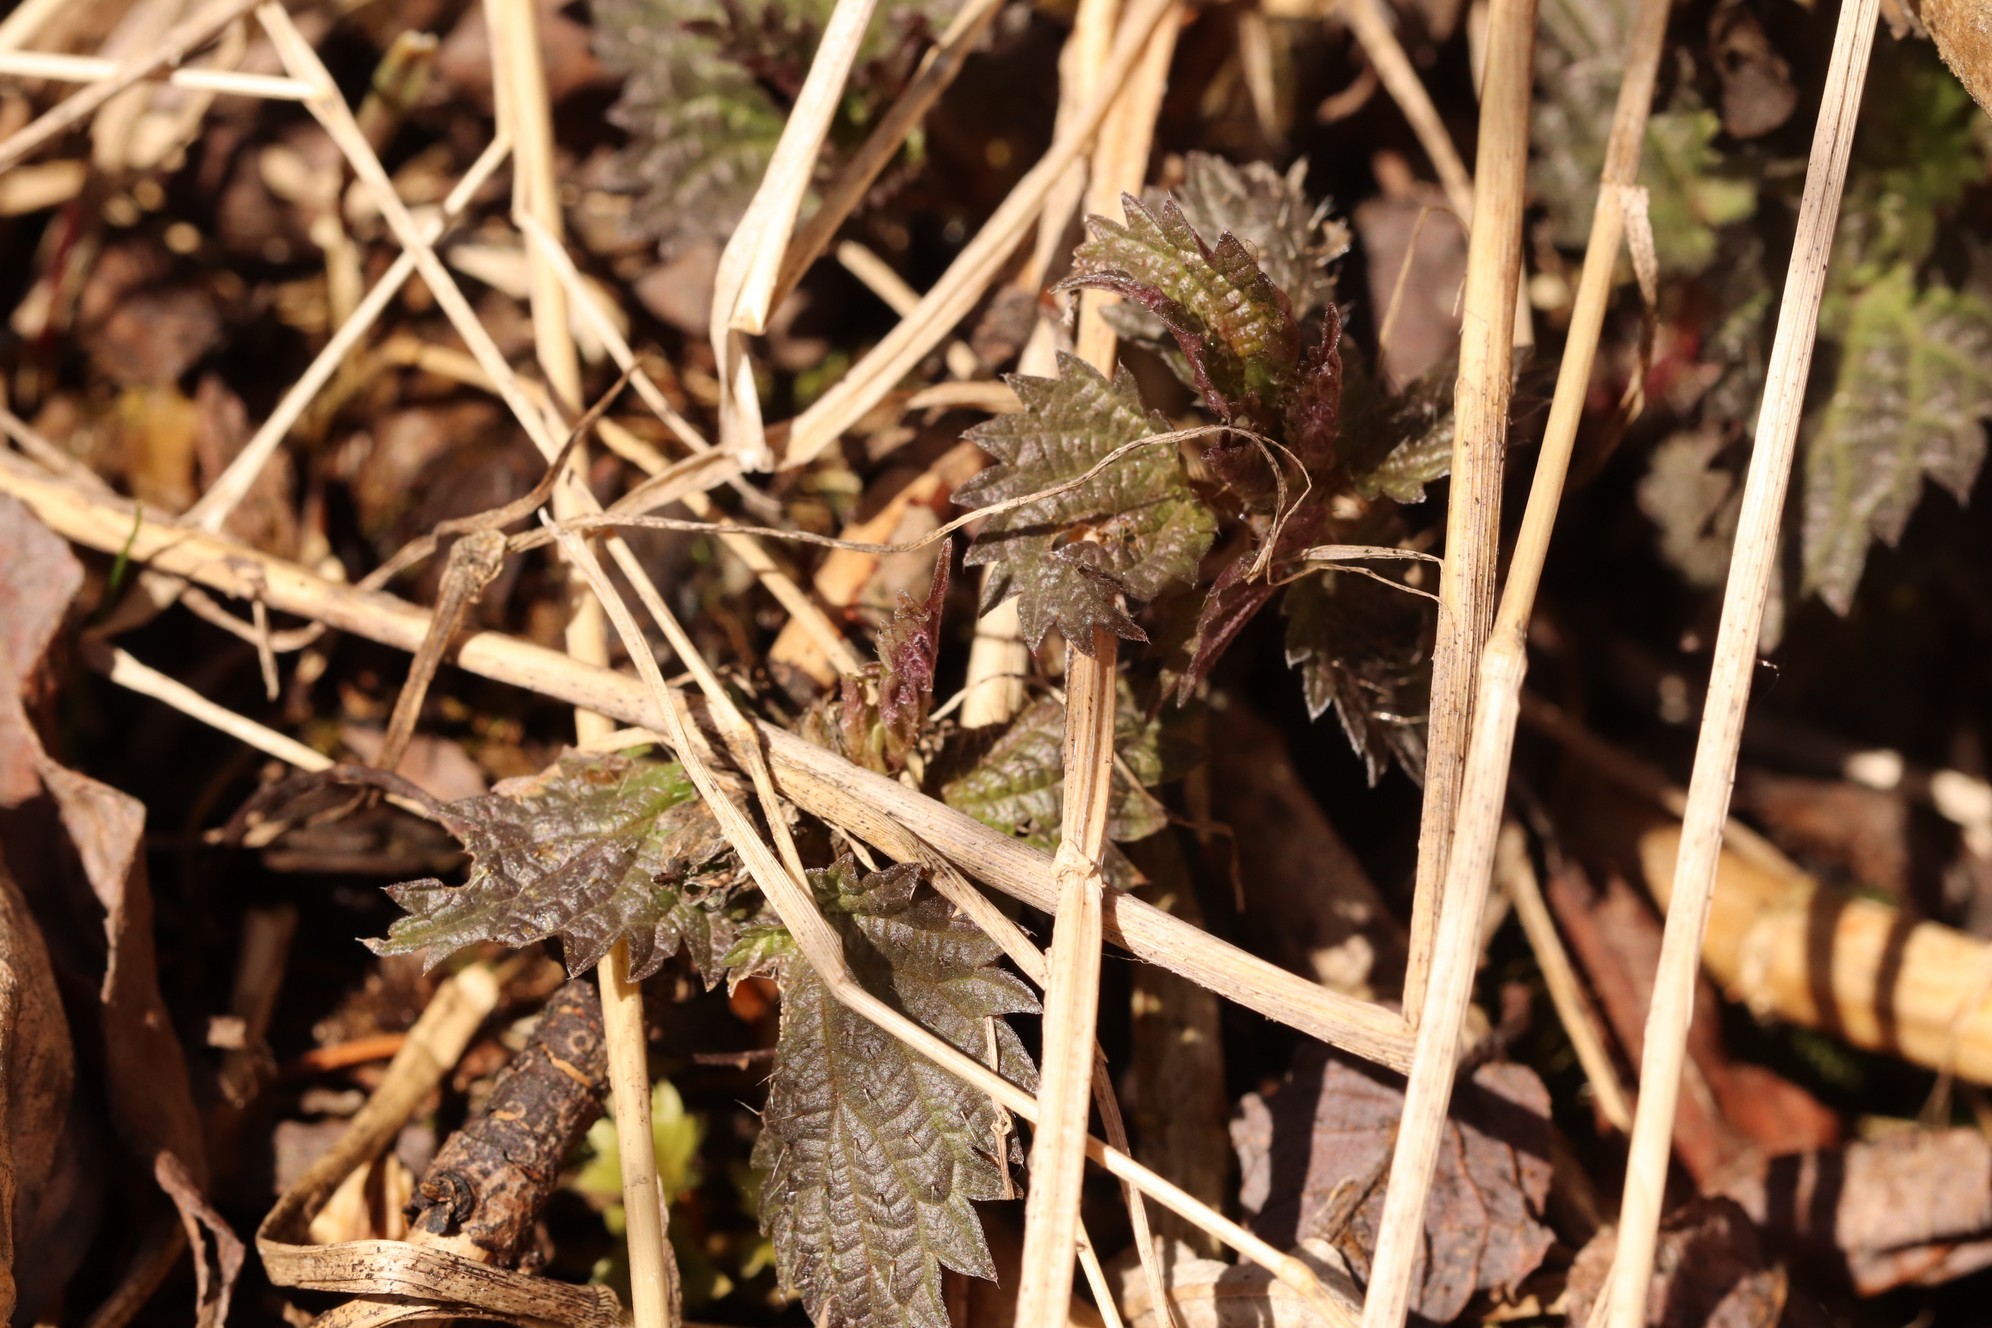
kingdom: Plantae
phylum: Tracheophyta
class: Magnoliopsida
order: Rosales
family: Urticaceae
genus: Urtica
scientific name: Urtica dioica
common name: Common nettle
